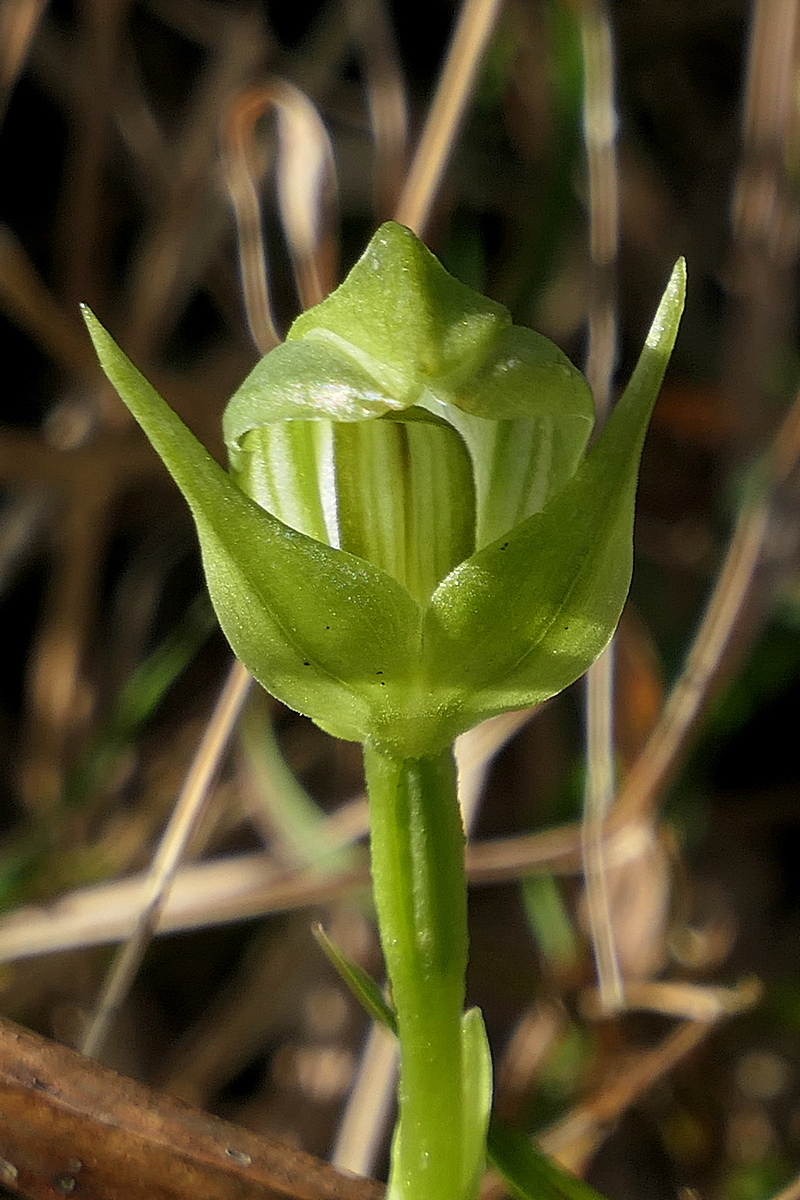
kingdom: Plantae
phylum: Tracheophyta
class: Liliopsida
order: Asparagales
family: Orchidaceae
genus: Pterostylis
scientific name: Pterostylis curta
